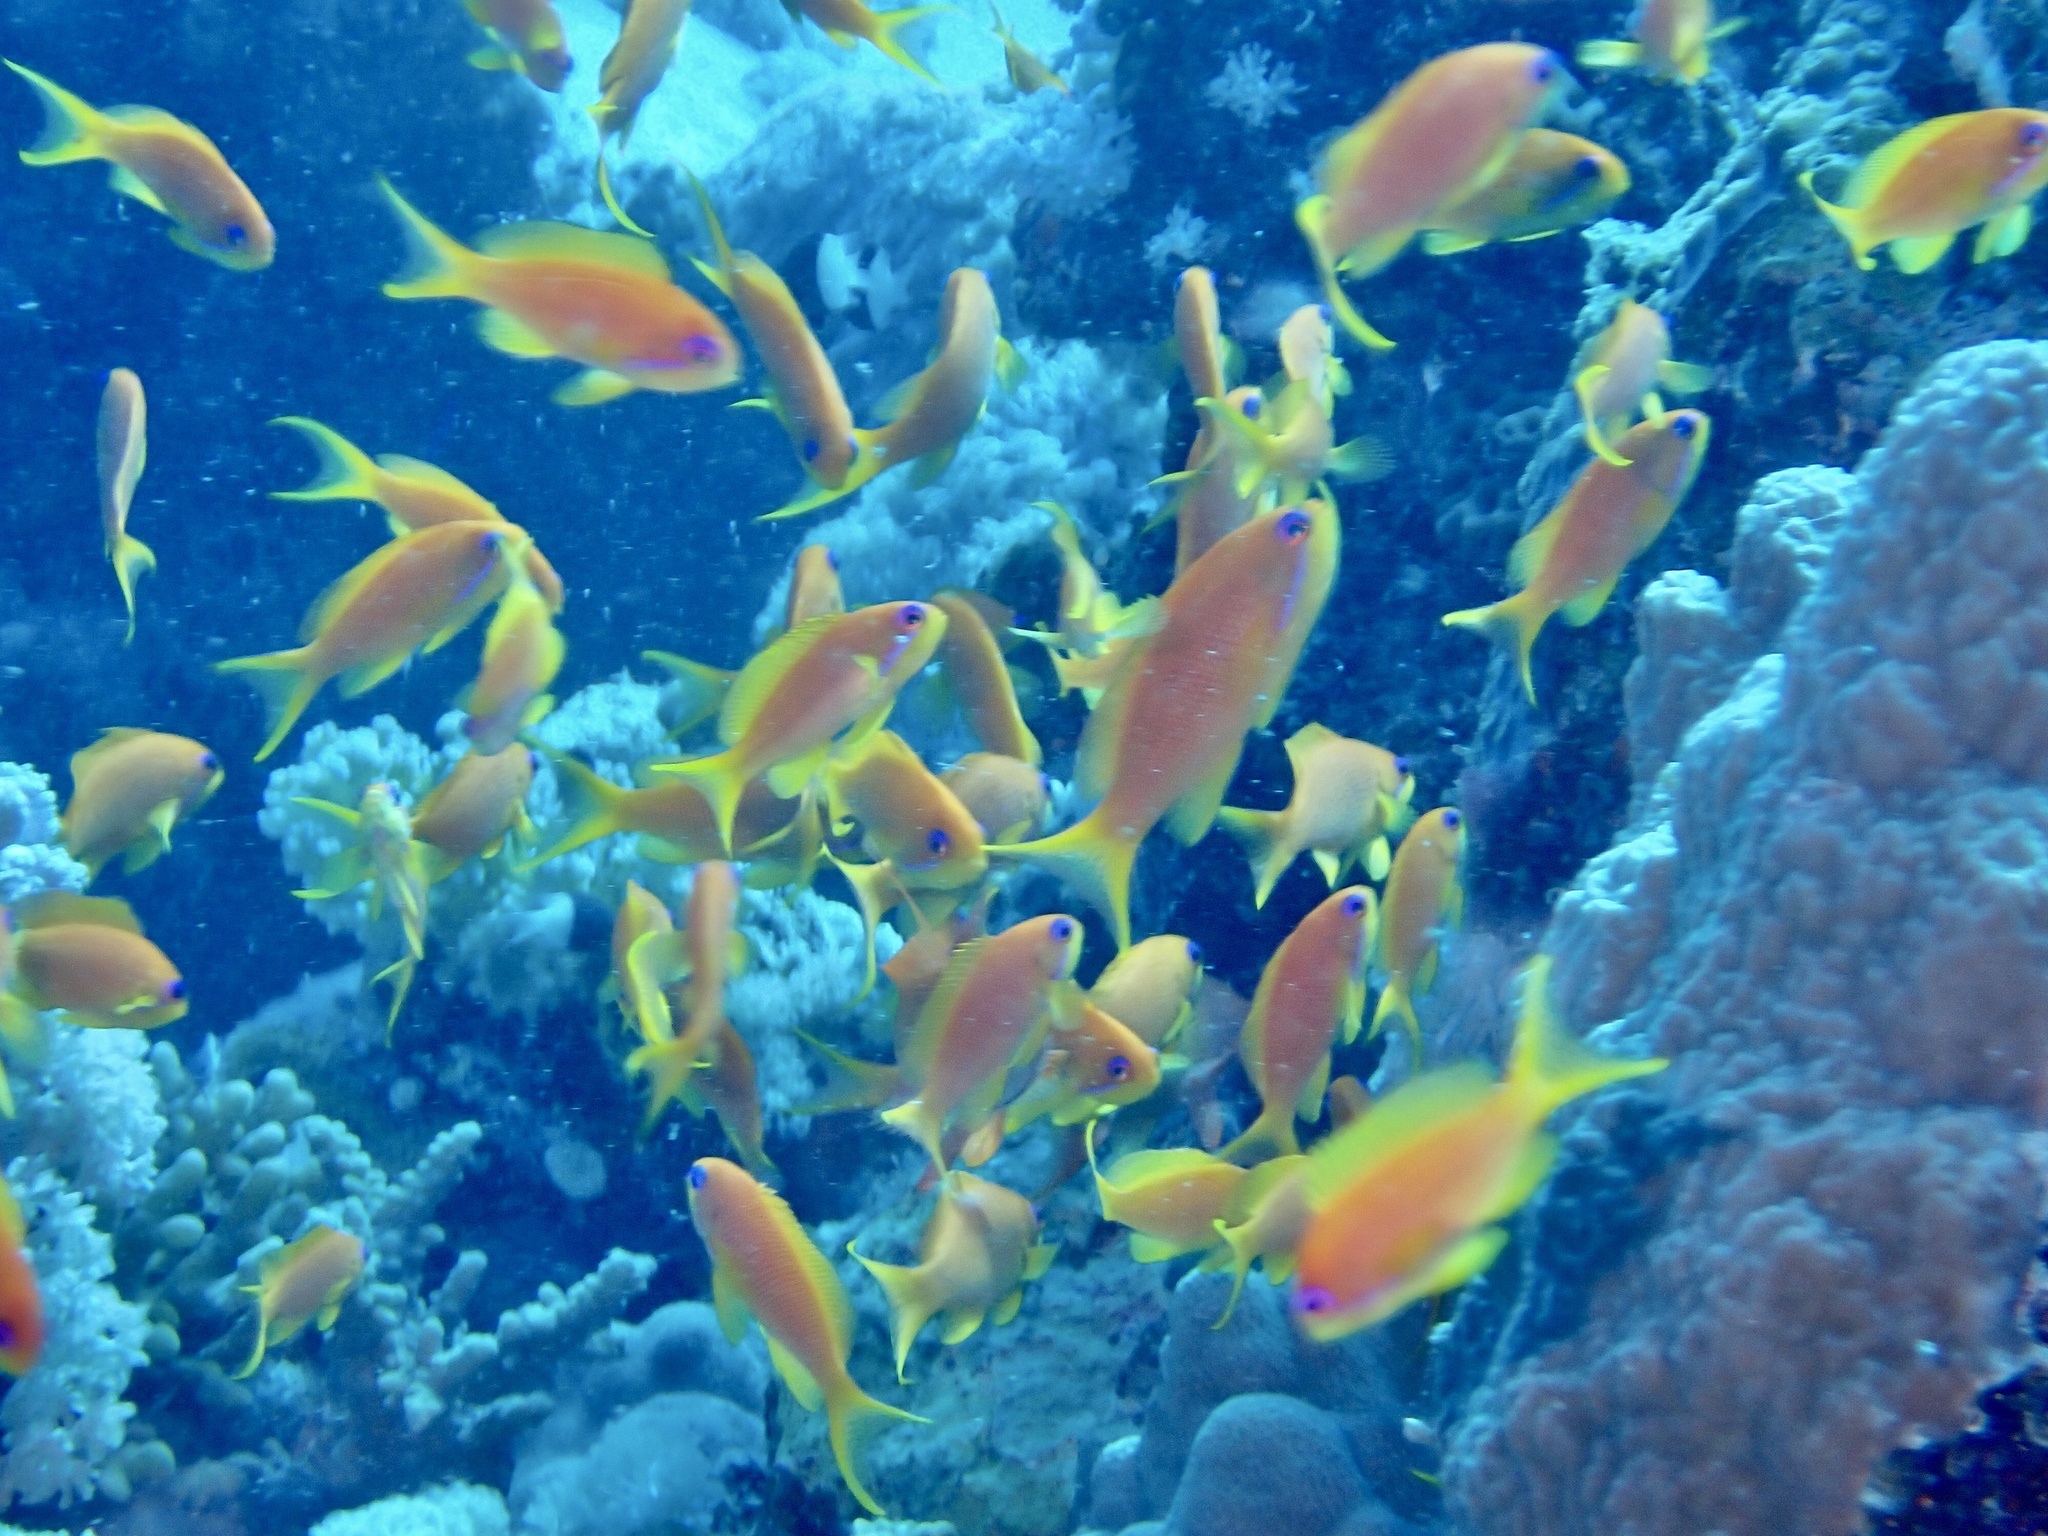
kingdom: Animalia
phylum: Chordata
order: Perciformes
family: Serranidae
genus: Pseudanthias
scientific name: Pseudanthias squamipinnis
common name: Scalefin anthias
